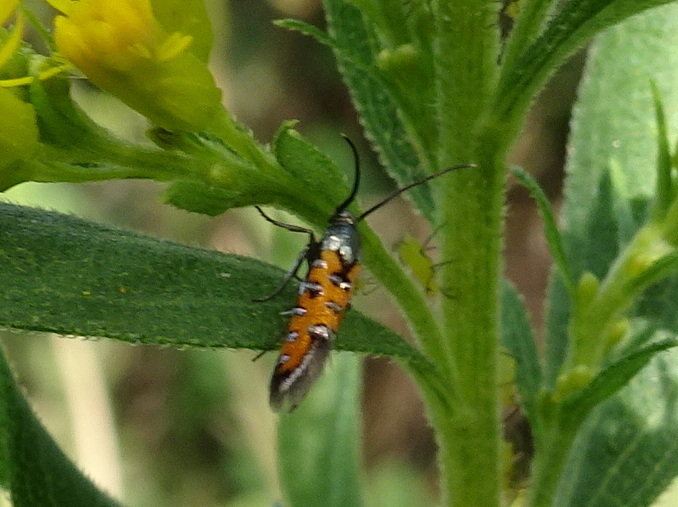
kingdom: Animalia
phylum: Arthropoda
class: Insecta
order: Lepidoptera
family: Heliodinidae
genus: Neoheliodines
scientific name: Neoheliodines nyctaginella
